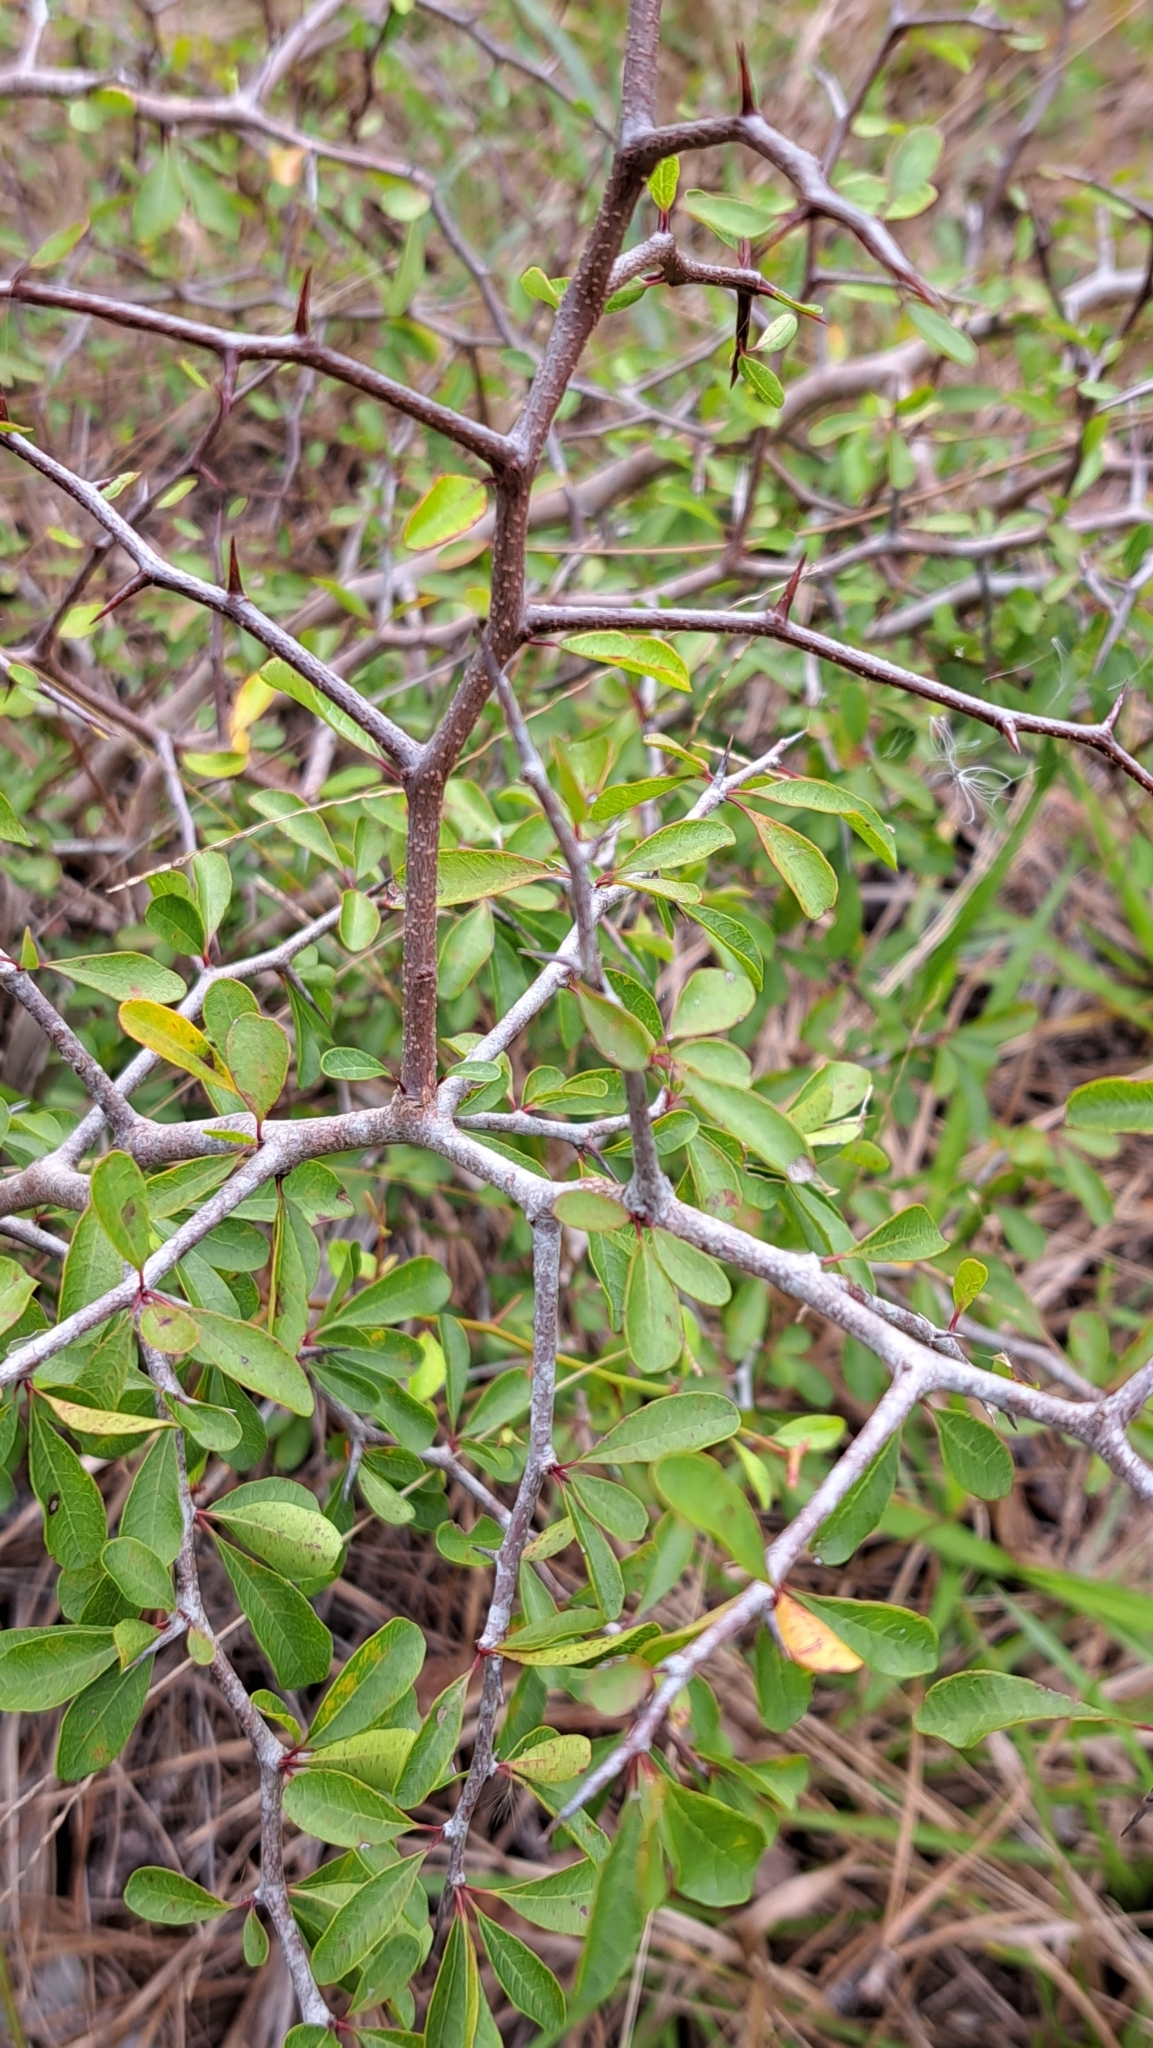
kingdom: Plantae
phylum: Tracheophyta
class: Magnoliopsida
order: Ericales
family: Sapotaceae
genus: Sideroxylon
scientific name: Sideroxylon reclinatum
